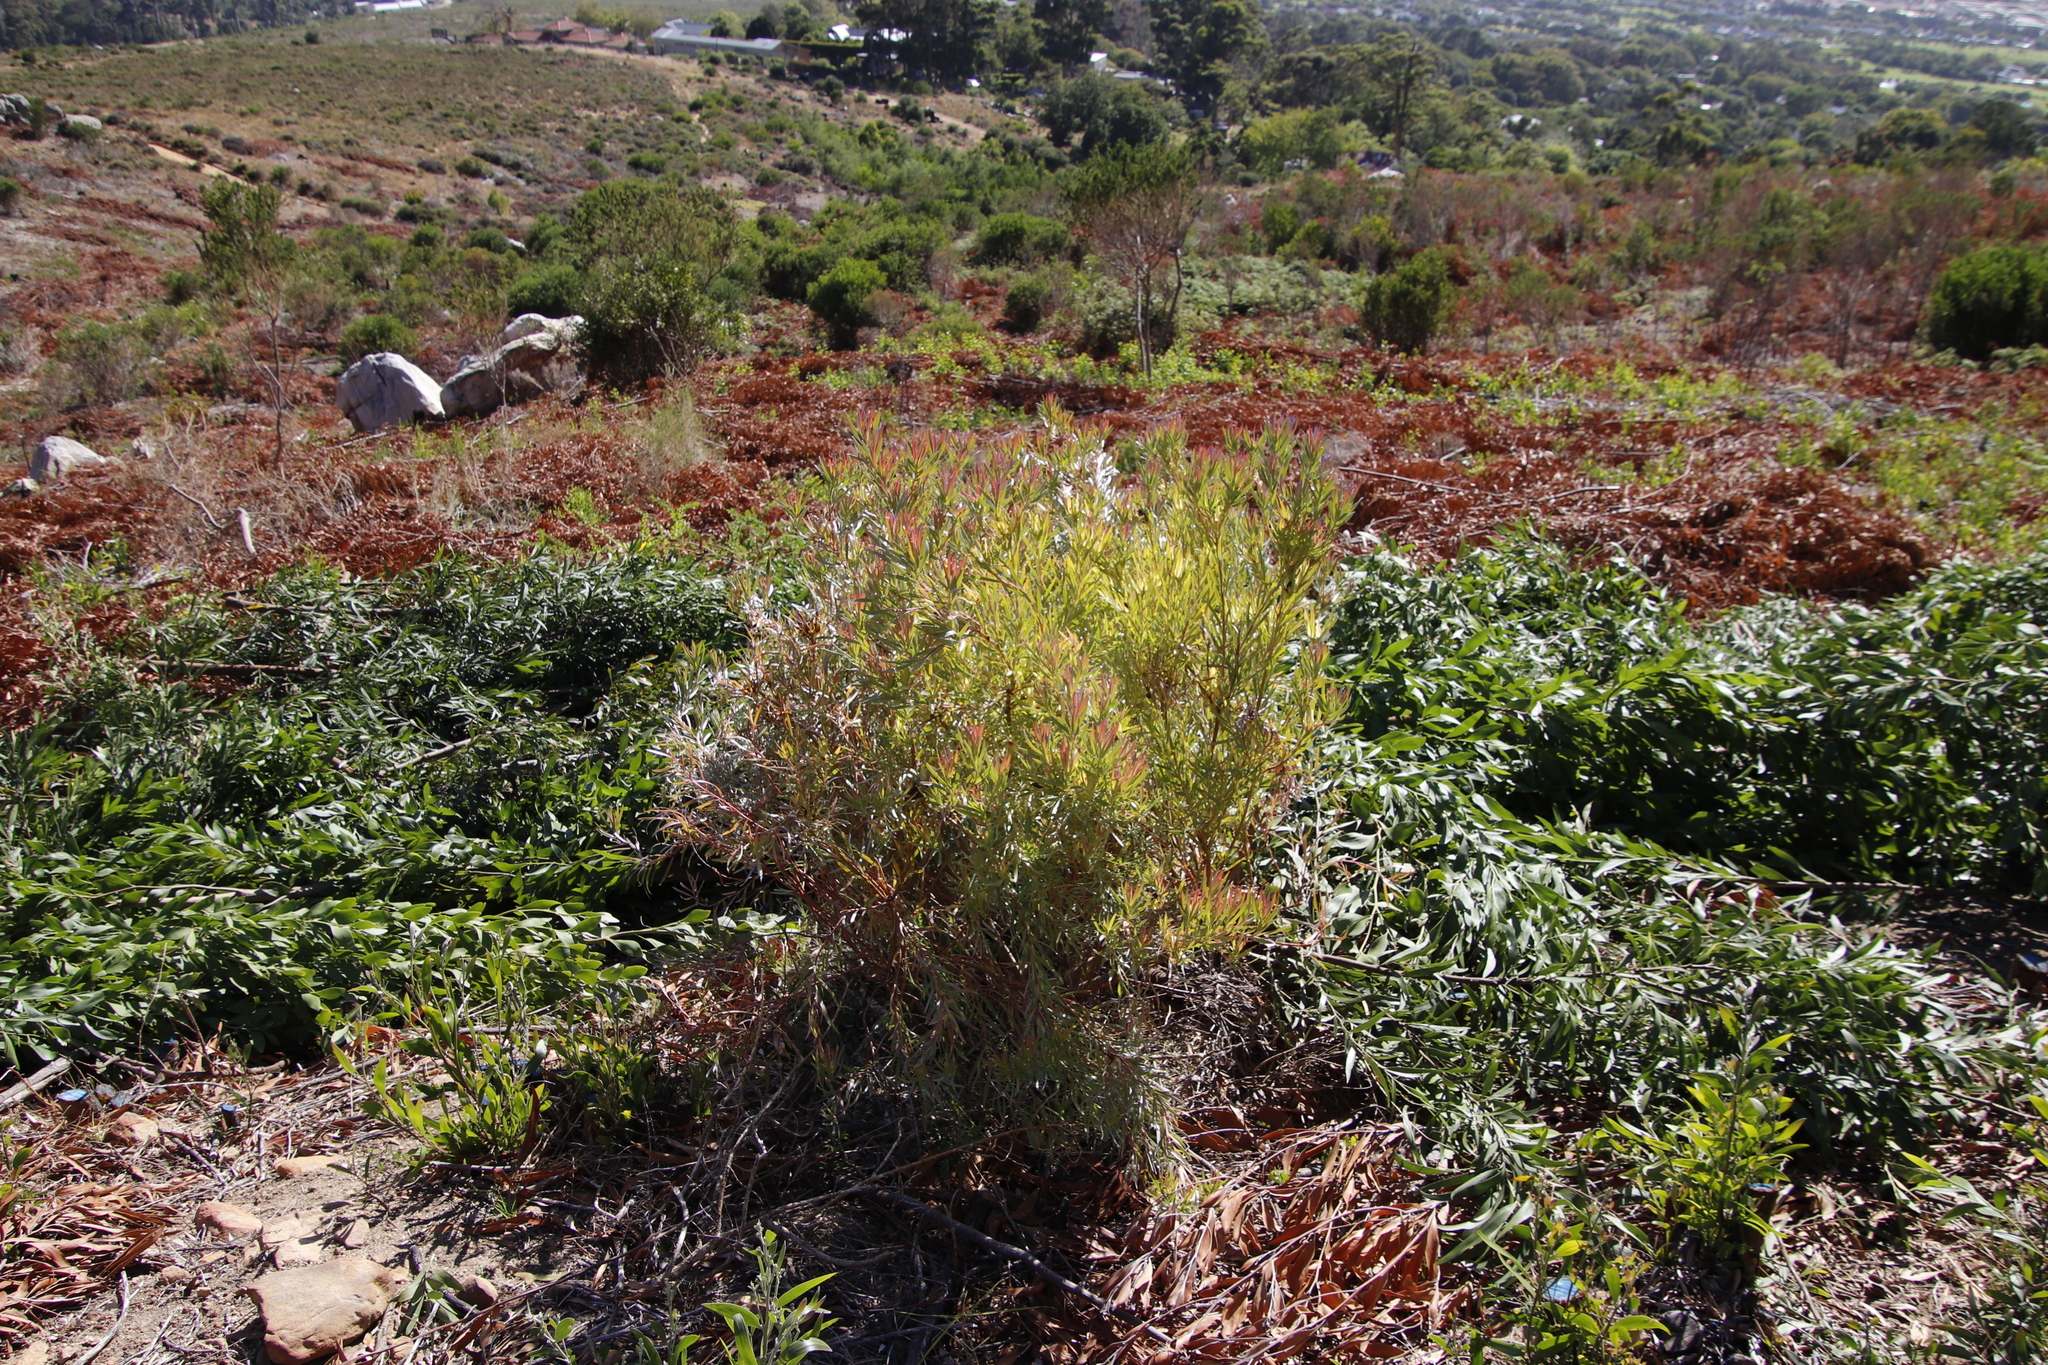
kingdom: Plantae
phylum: Tracheophyta
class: Magnoliopsida
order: Proteales
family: Proteaceae
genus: Leucadendron
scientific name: Leucadendron xanthoconus
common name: Sickle-leaf conebush
